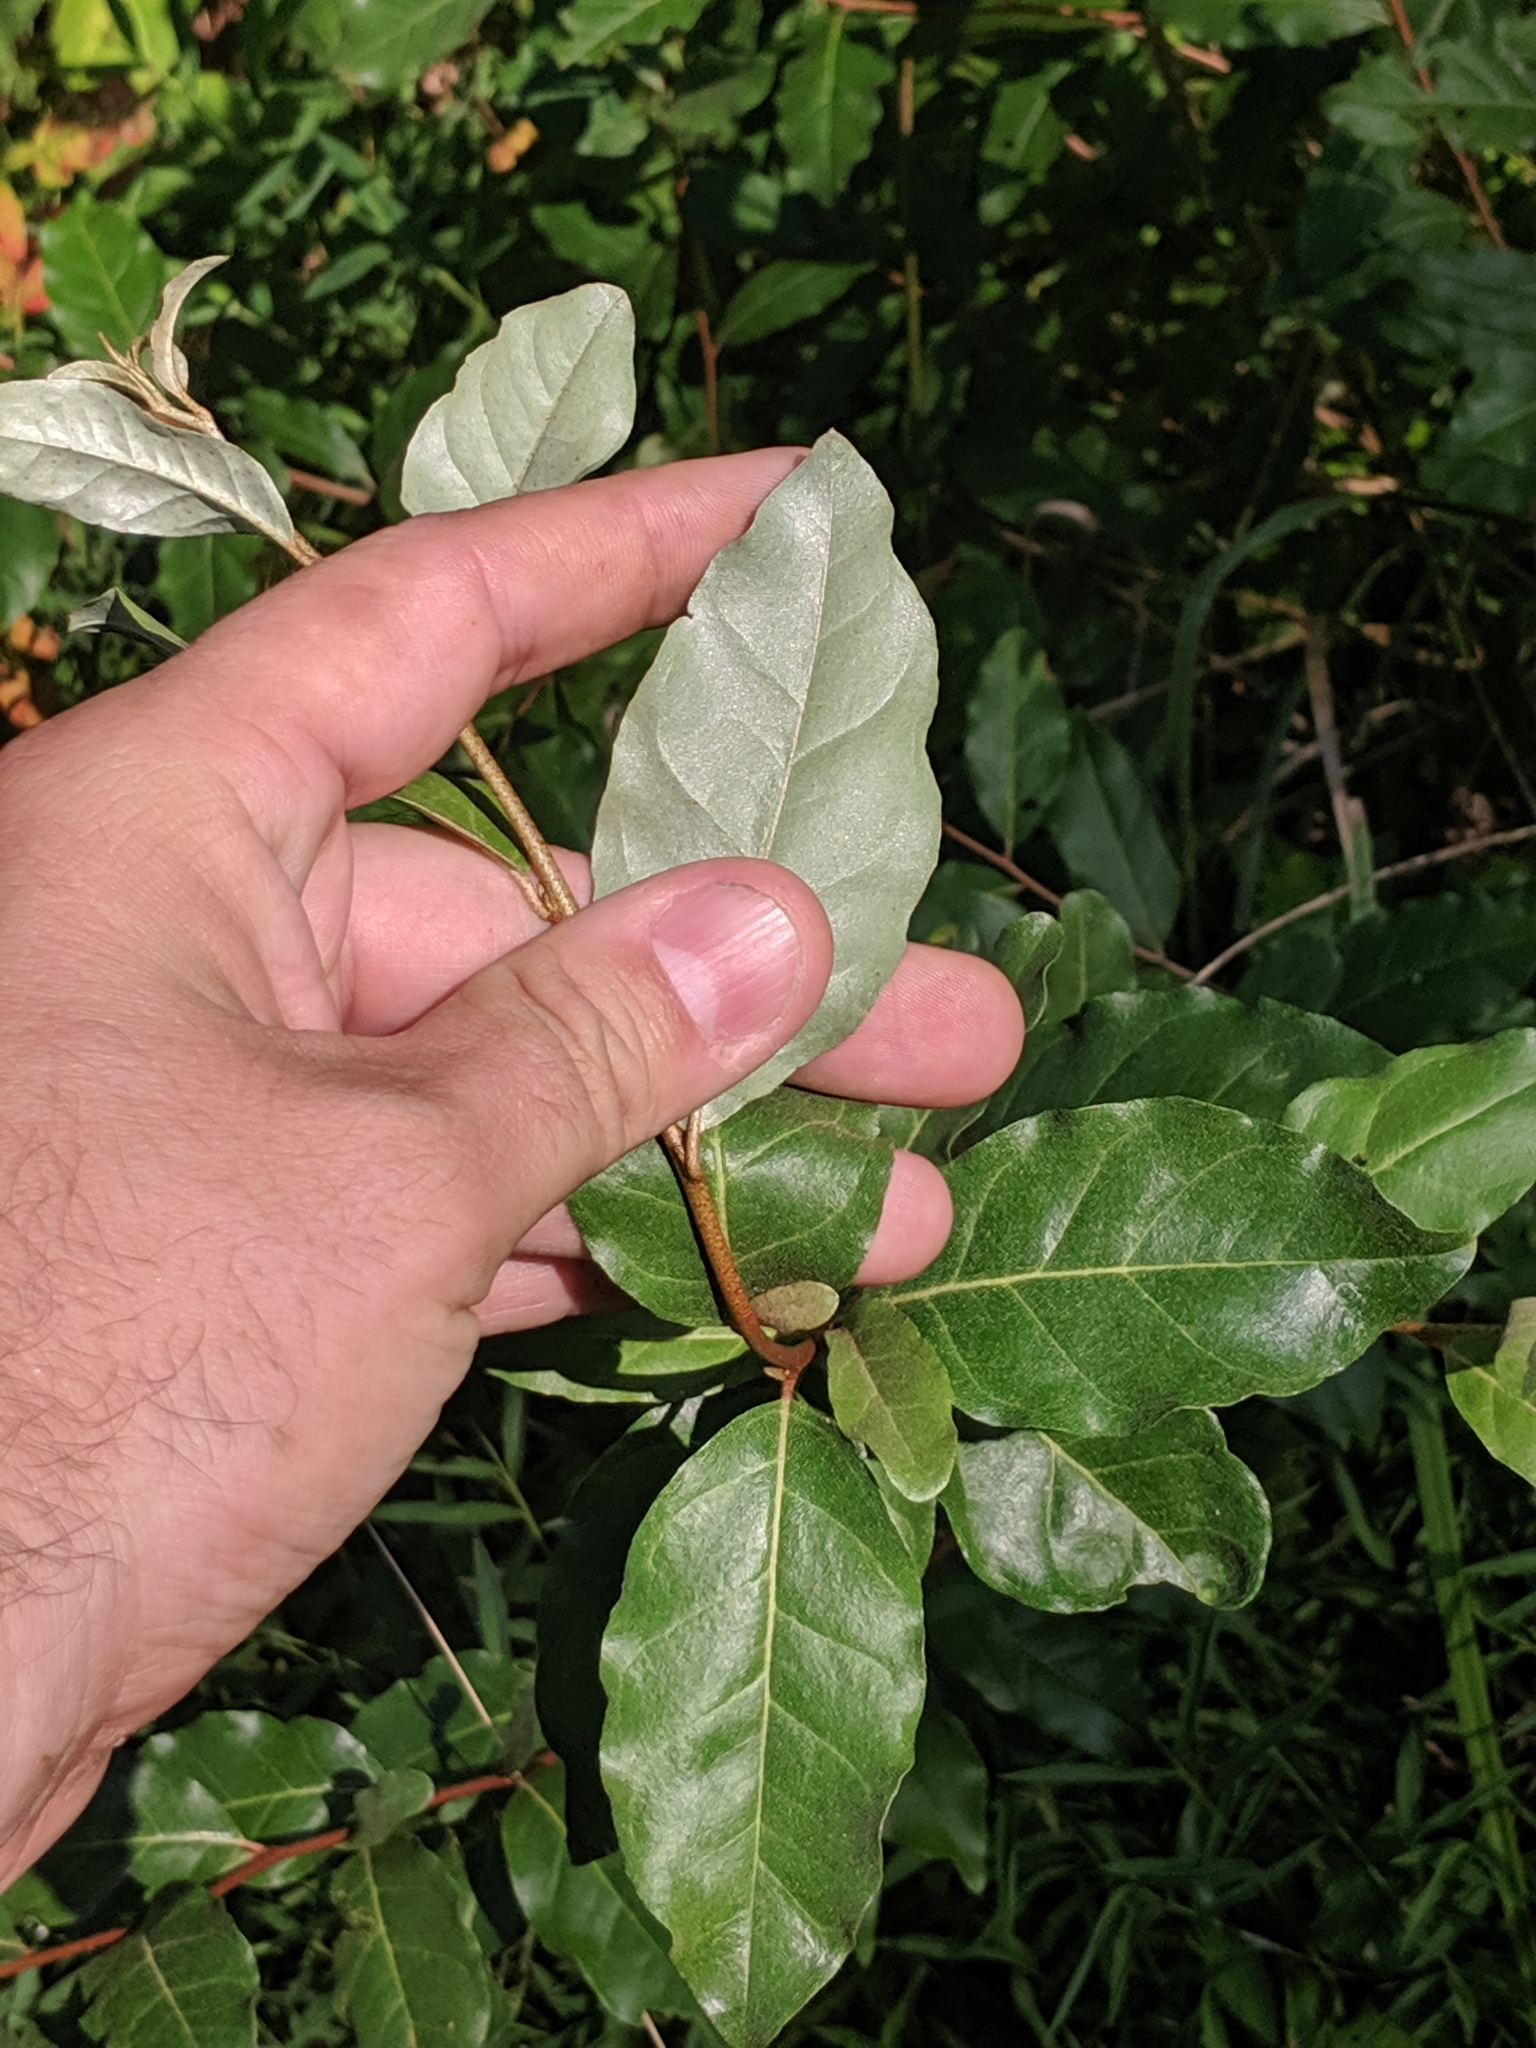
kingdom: Plantae
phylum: Tracheophyta
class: Magnoliopsida
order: Rosales
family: Elaeagnaceae
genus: Elaeagnus
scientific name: Elaeagnus umbellata
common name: Autumn olive
